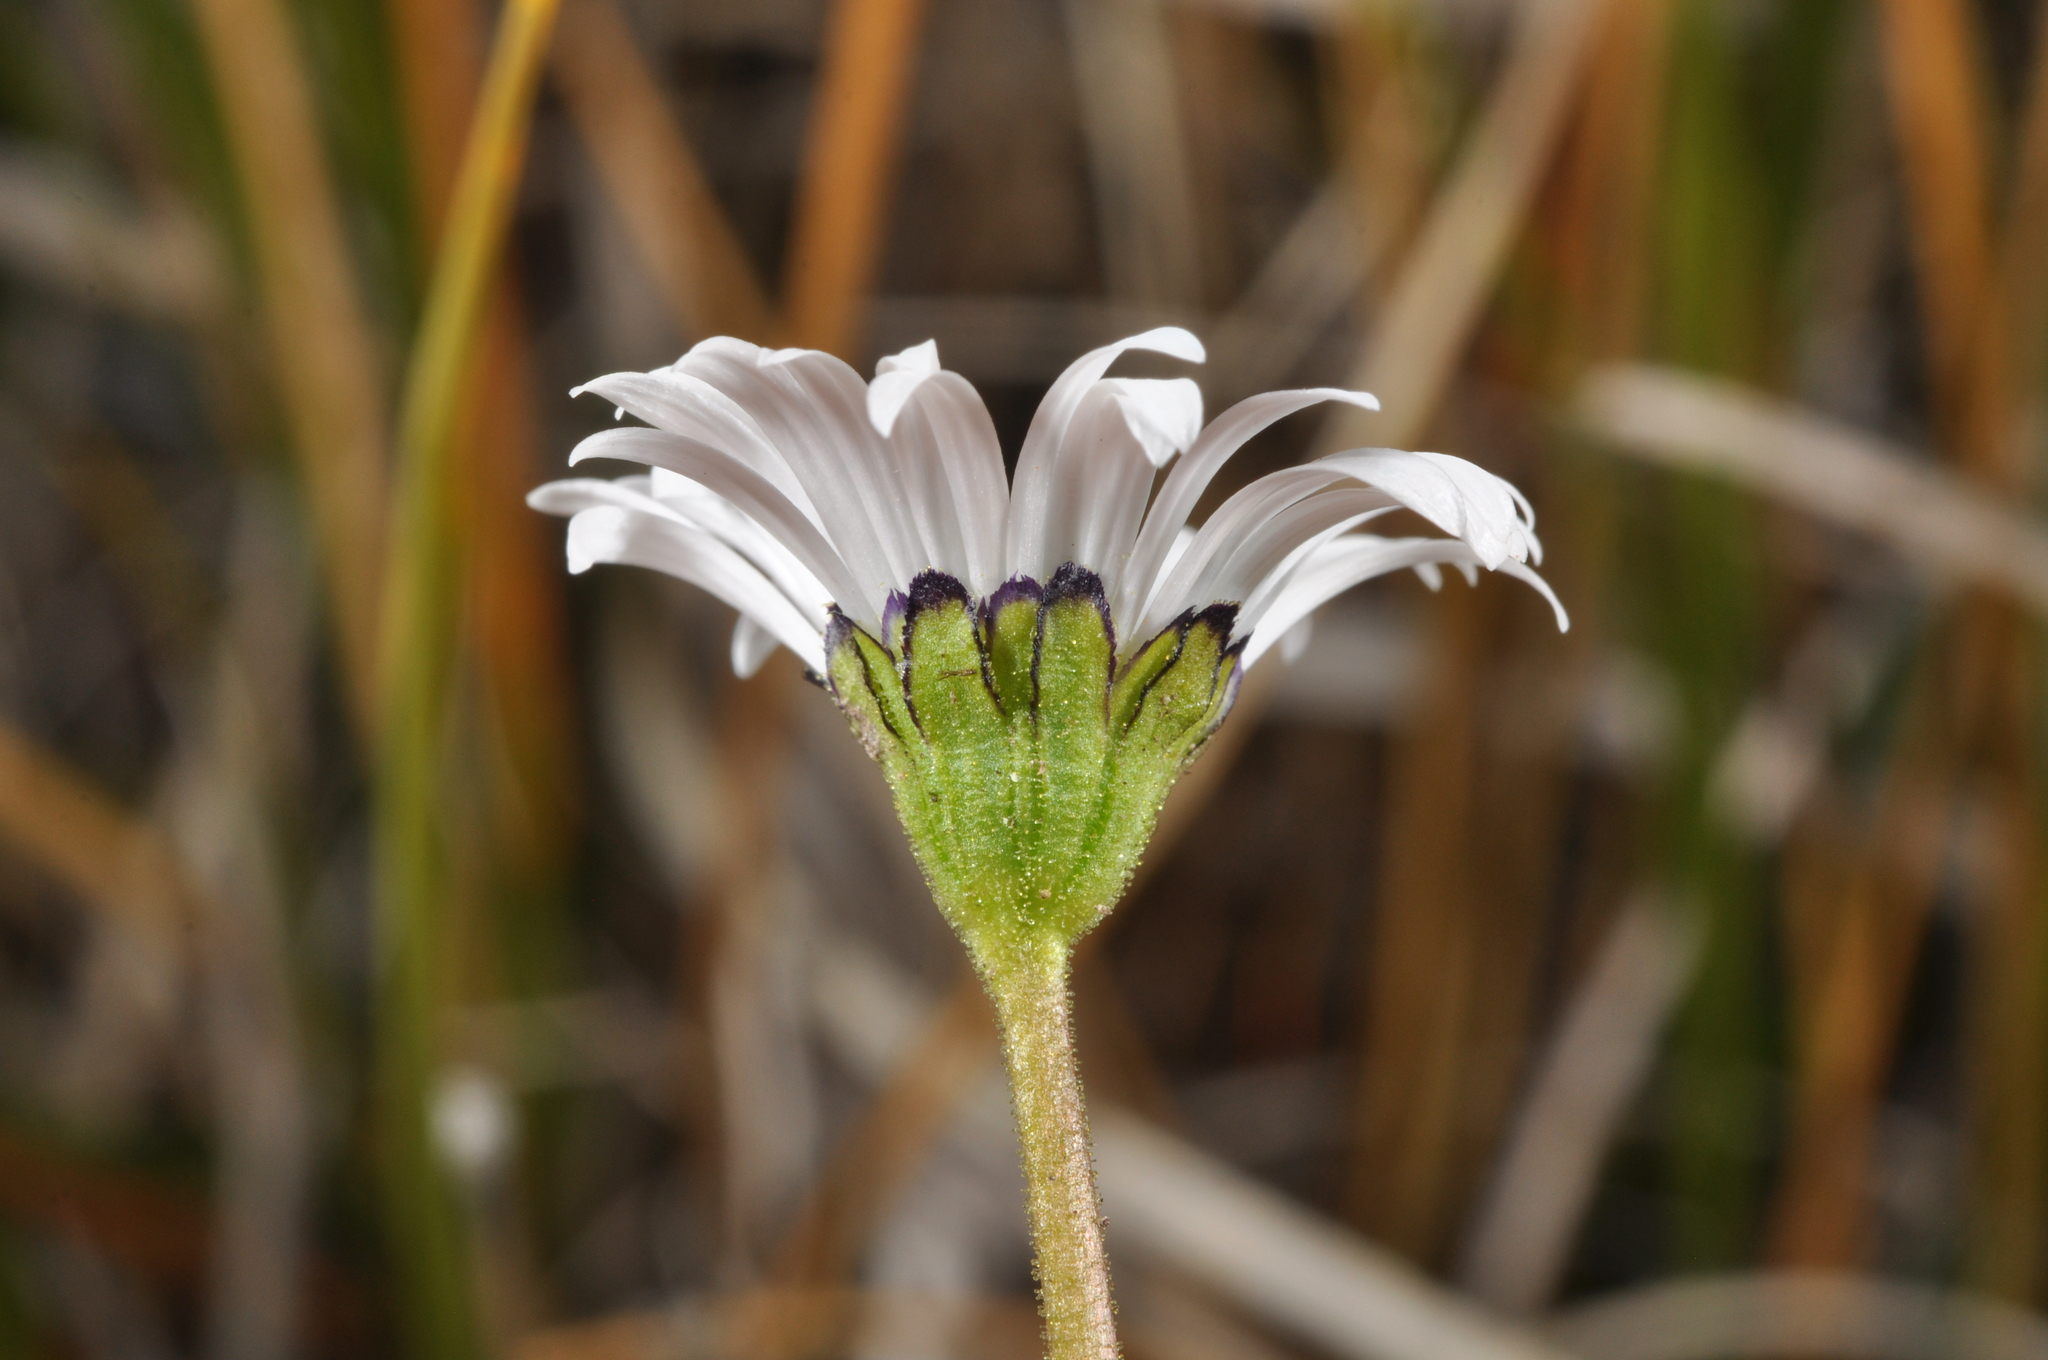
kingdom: Plantae
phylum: Tracheophyta
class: Magnoliopsida
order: Asterales
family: Asteraceae
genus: Brachyscome
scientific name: Brachyscome sinclairii
